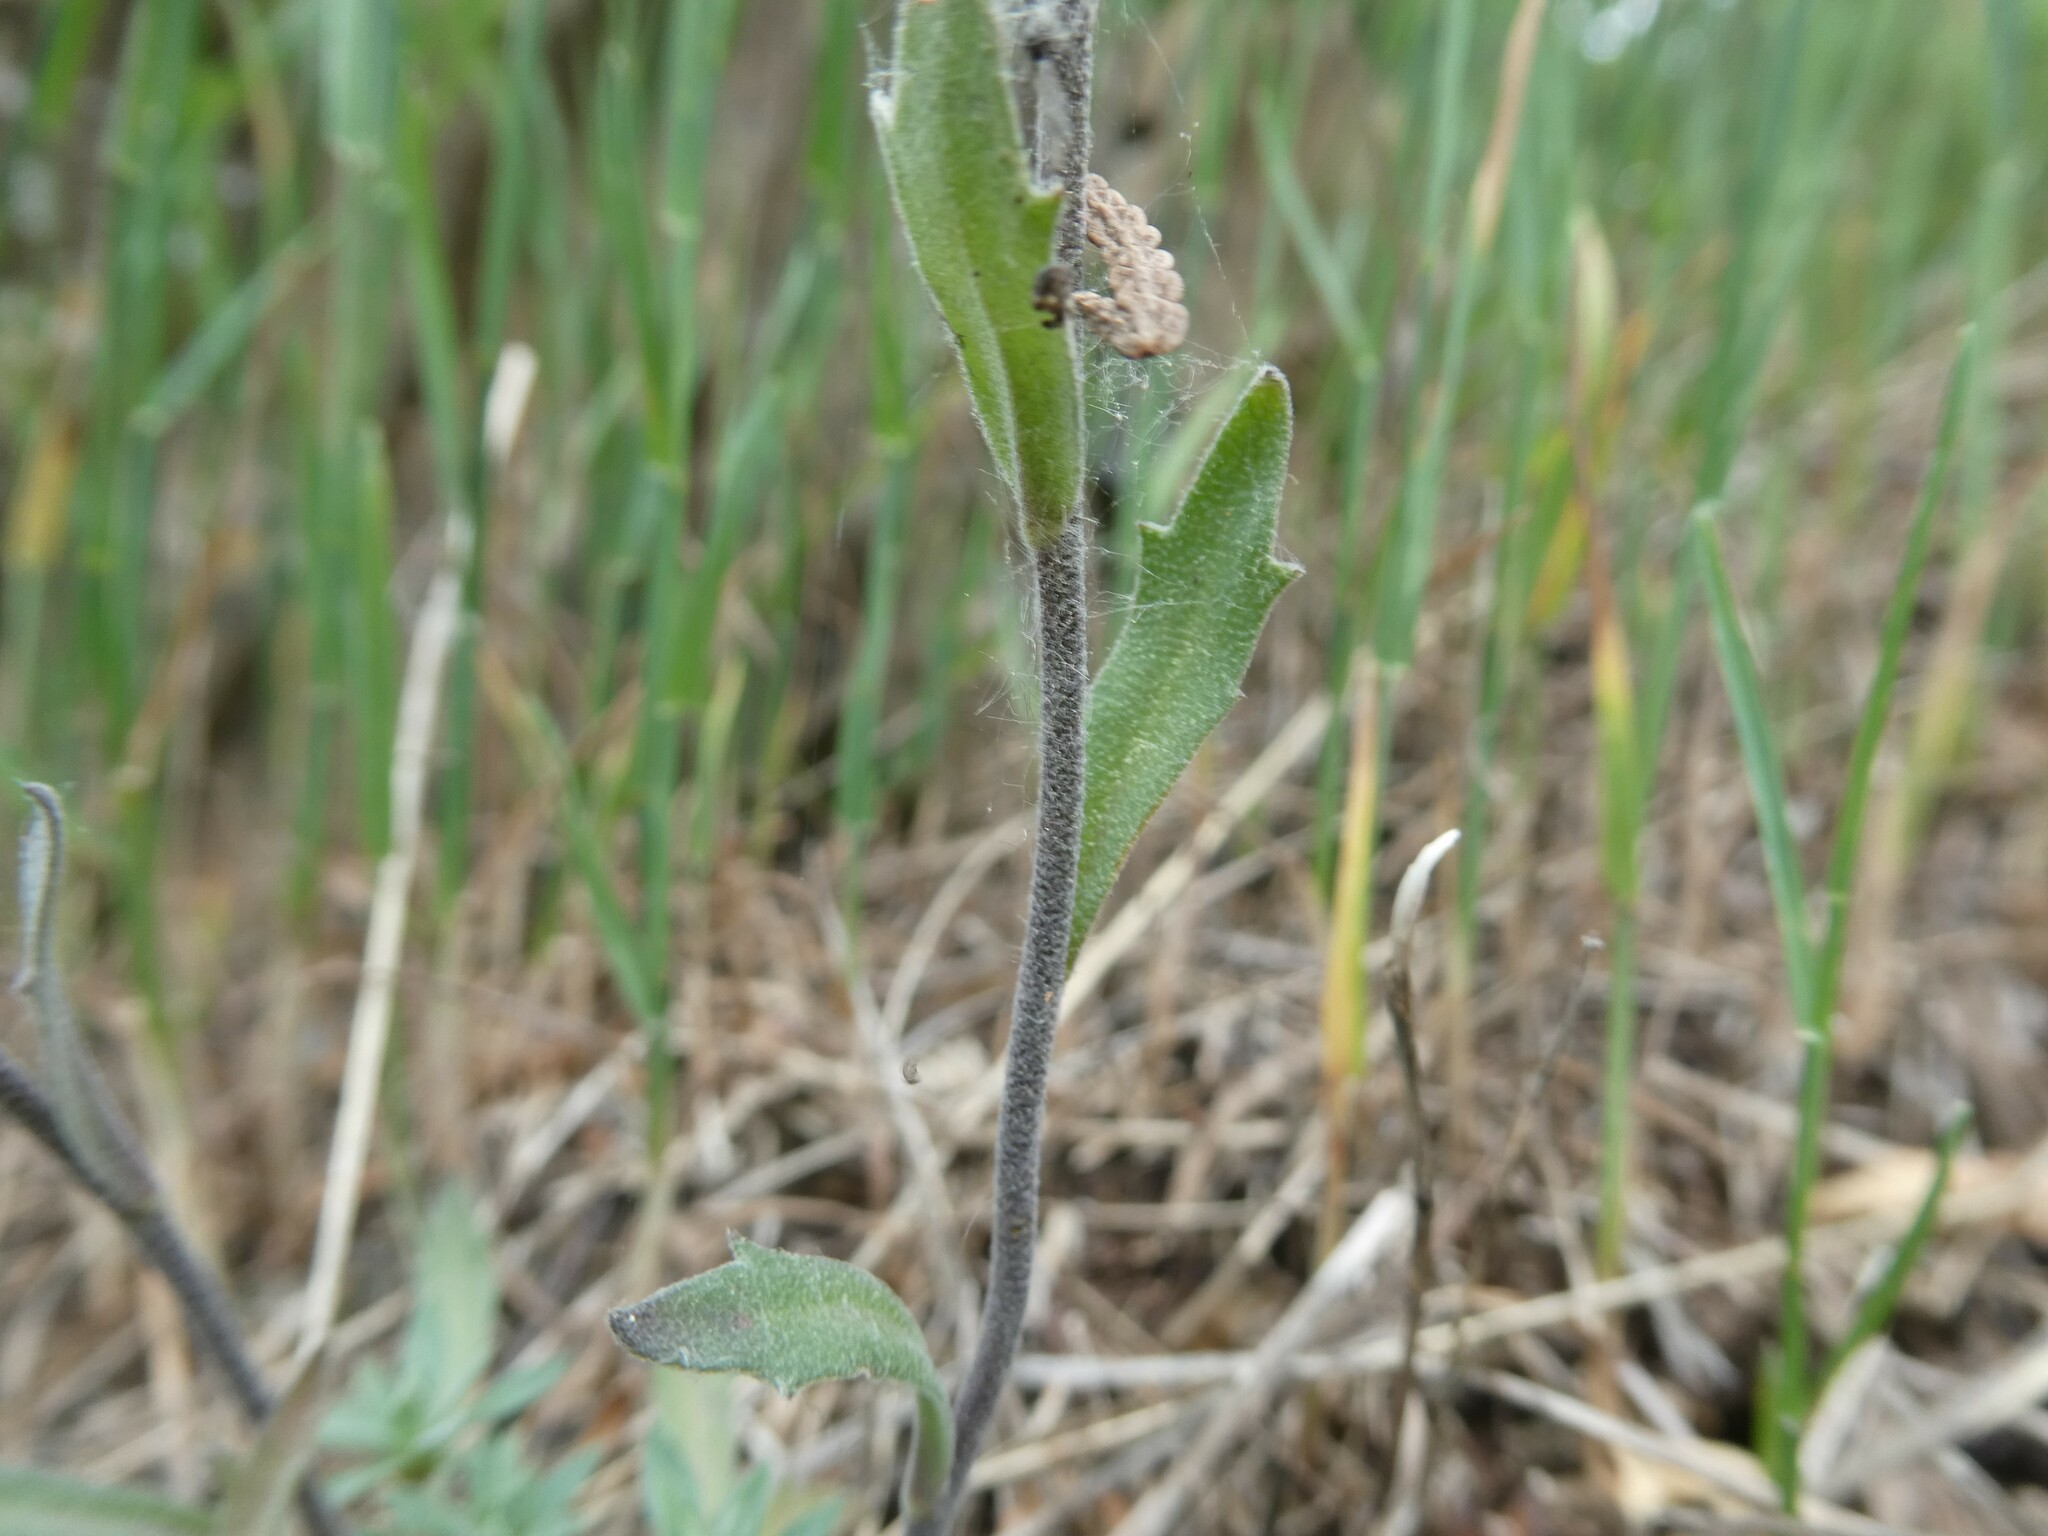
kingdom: Plantae
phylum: Tracheophyta
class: Magnoliopsida
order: Brassicales
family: Brassicaceae
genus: Draba
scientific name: Draba arabisans
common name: Rock draba
